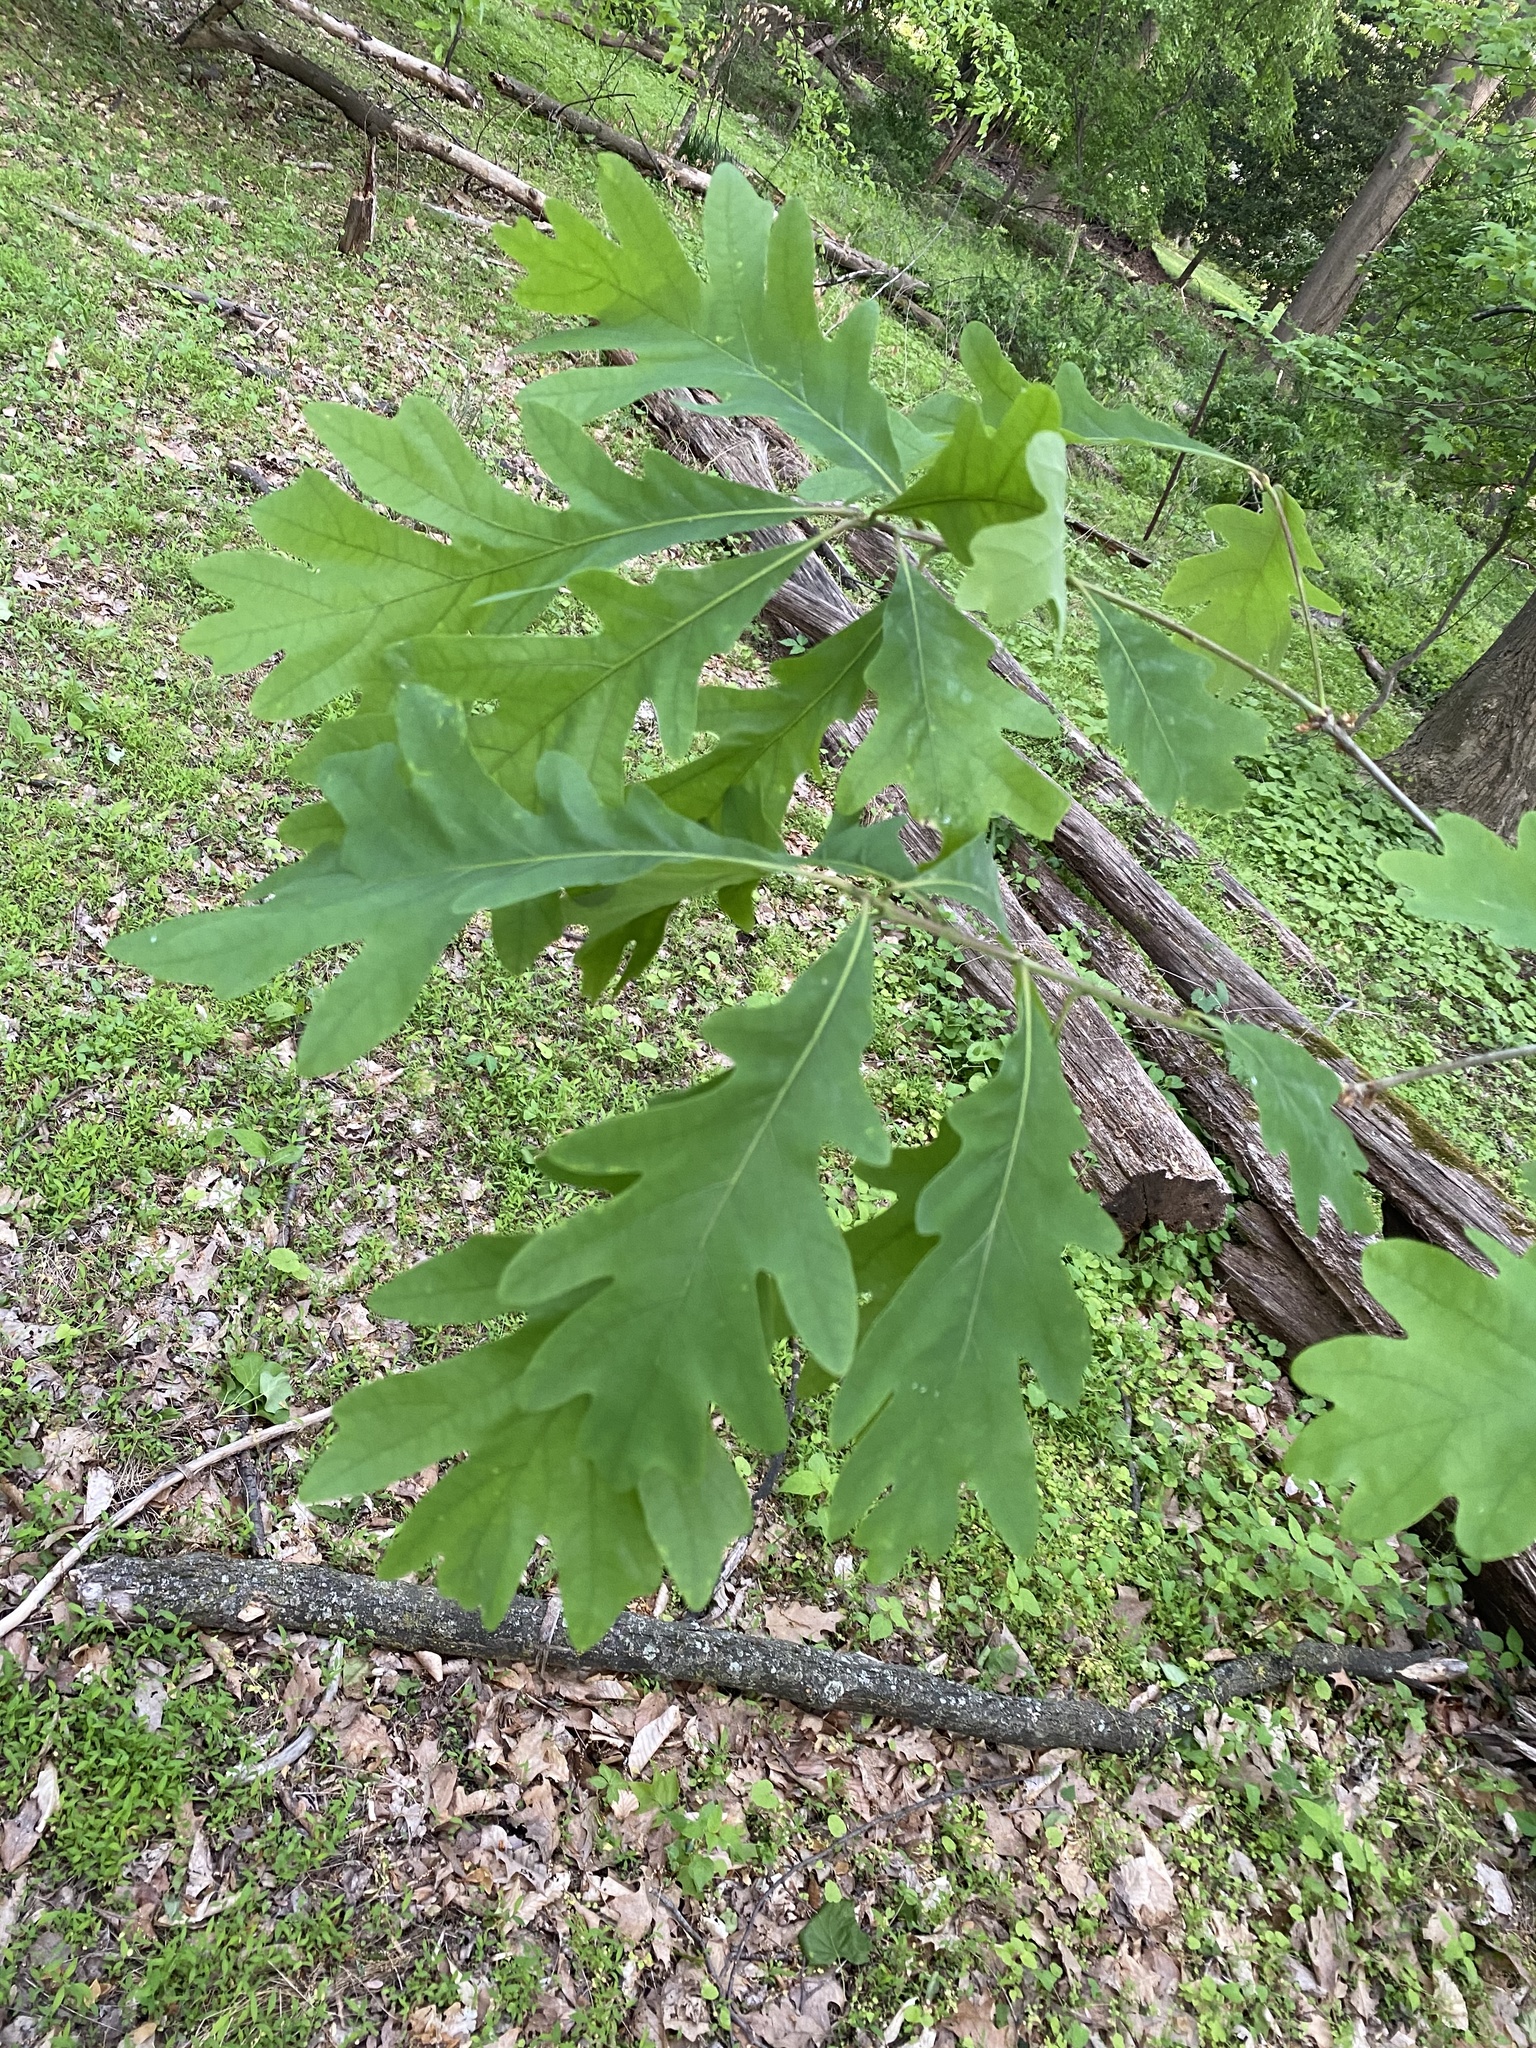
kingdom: Plantae
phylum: Tracheophyta
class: Magnoliopsida
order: Fagales
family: Fagaceae
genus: Quercus
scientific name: Quercus alba
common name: White oak
